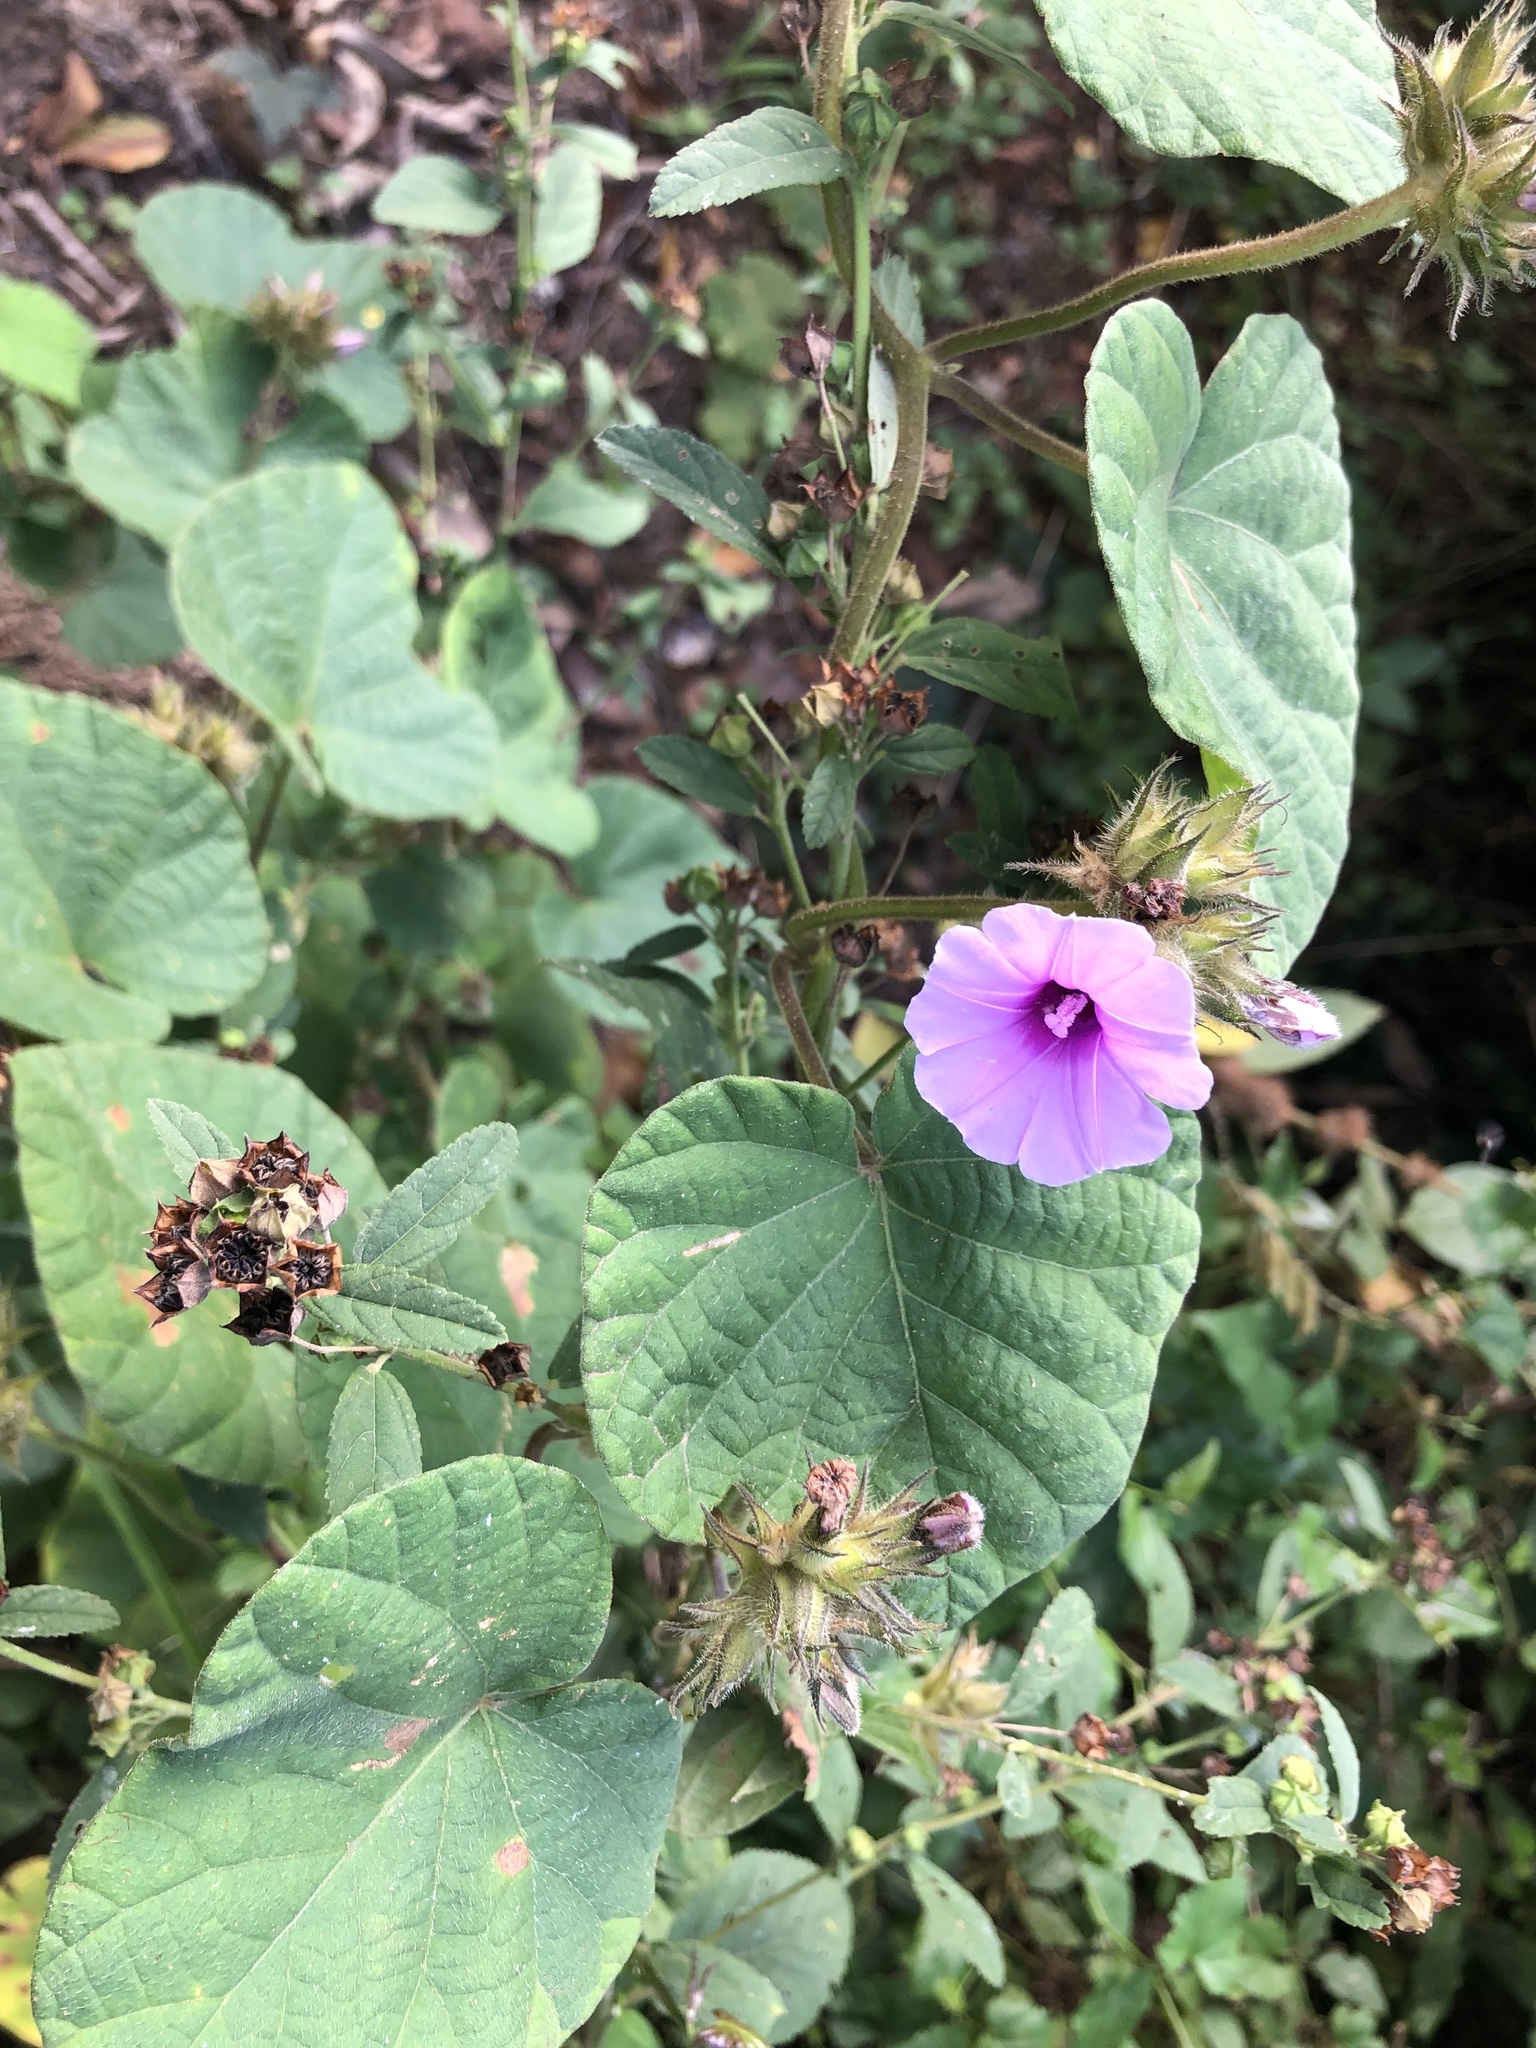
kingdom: Plantae
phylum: Tracheophyta
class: Magnoliopsida
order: Solanales
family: Convolvulaceae
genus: Ipomoea
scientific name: Ipomoea wightii
